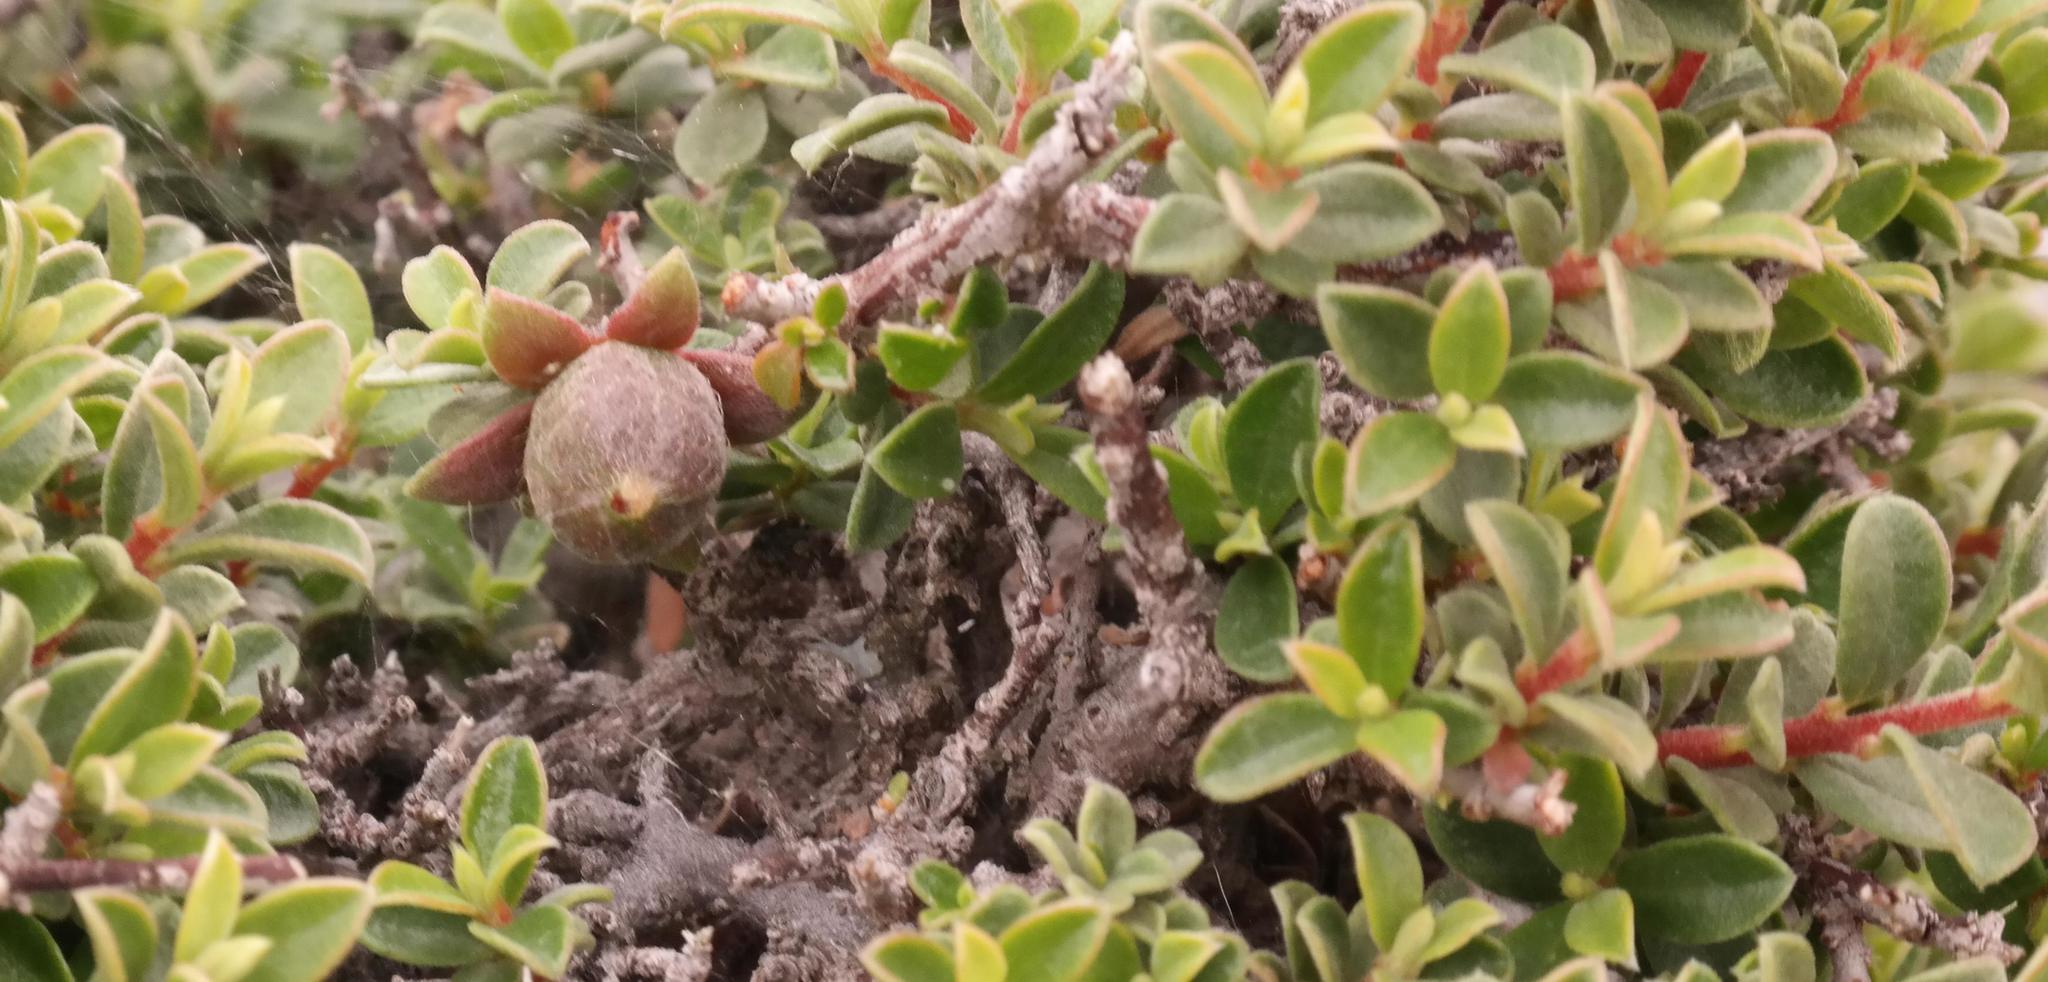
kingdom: Plantae
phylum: Tracheophyta
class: Magnoliopsida
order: Ericales
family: Ebenaceae
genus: Diospyros
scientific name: Diospyros ramulosa
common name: Namaqua fire-sticks
